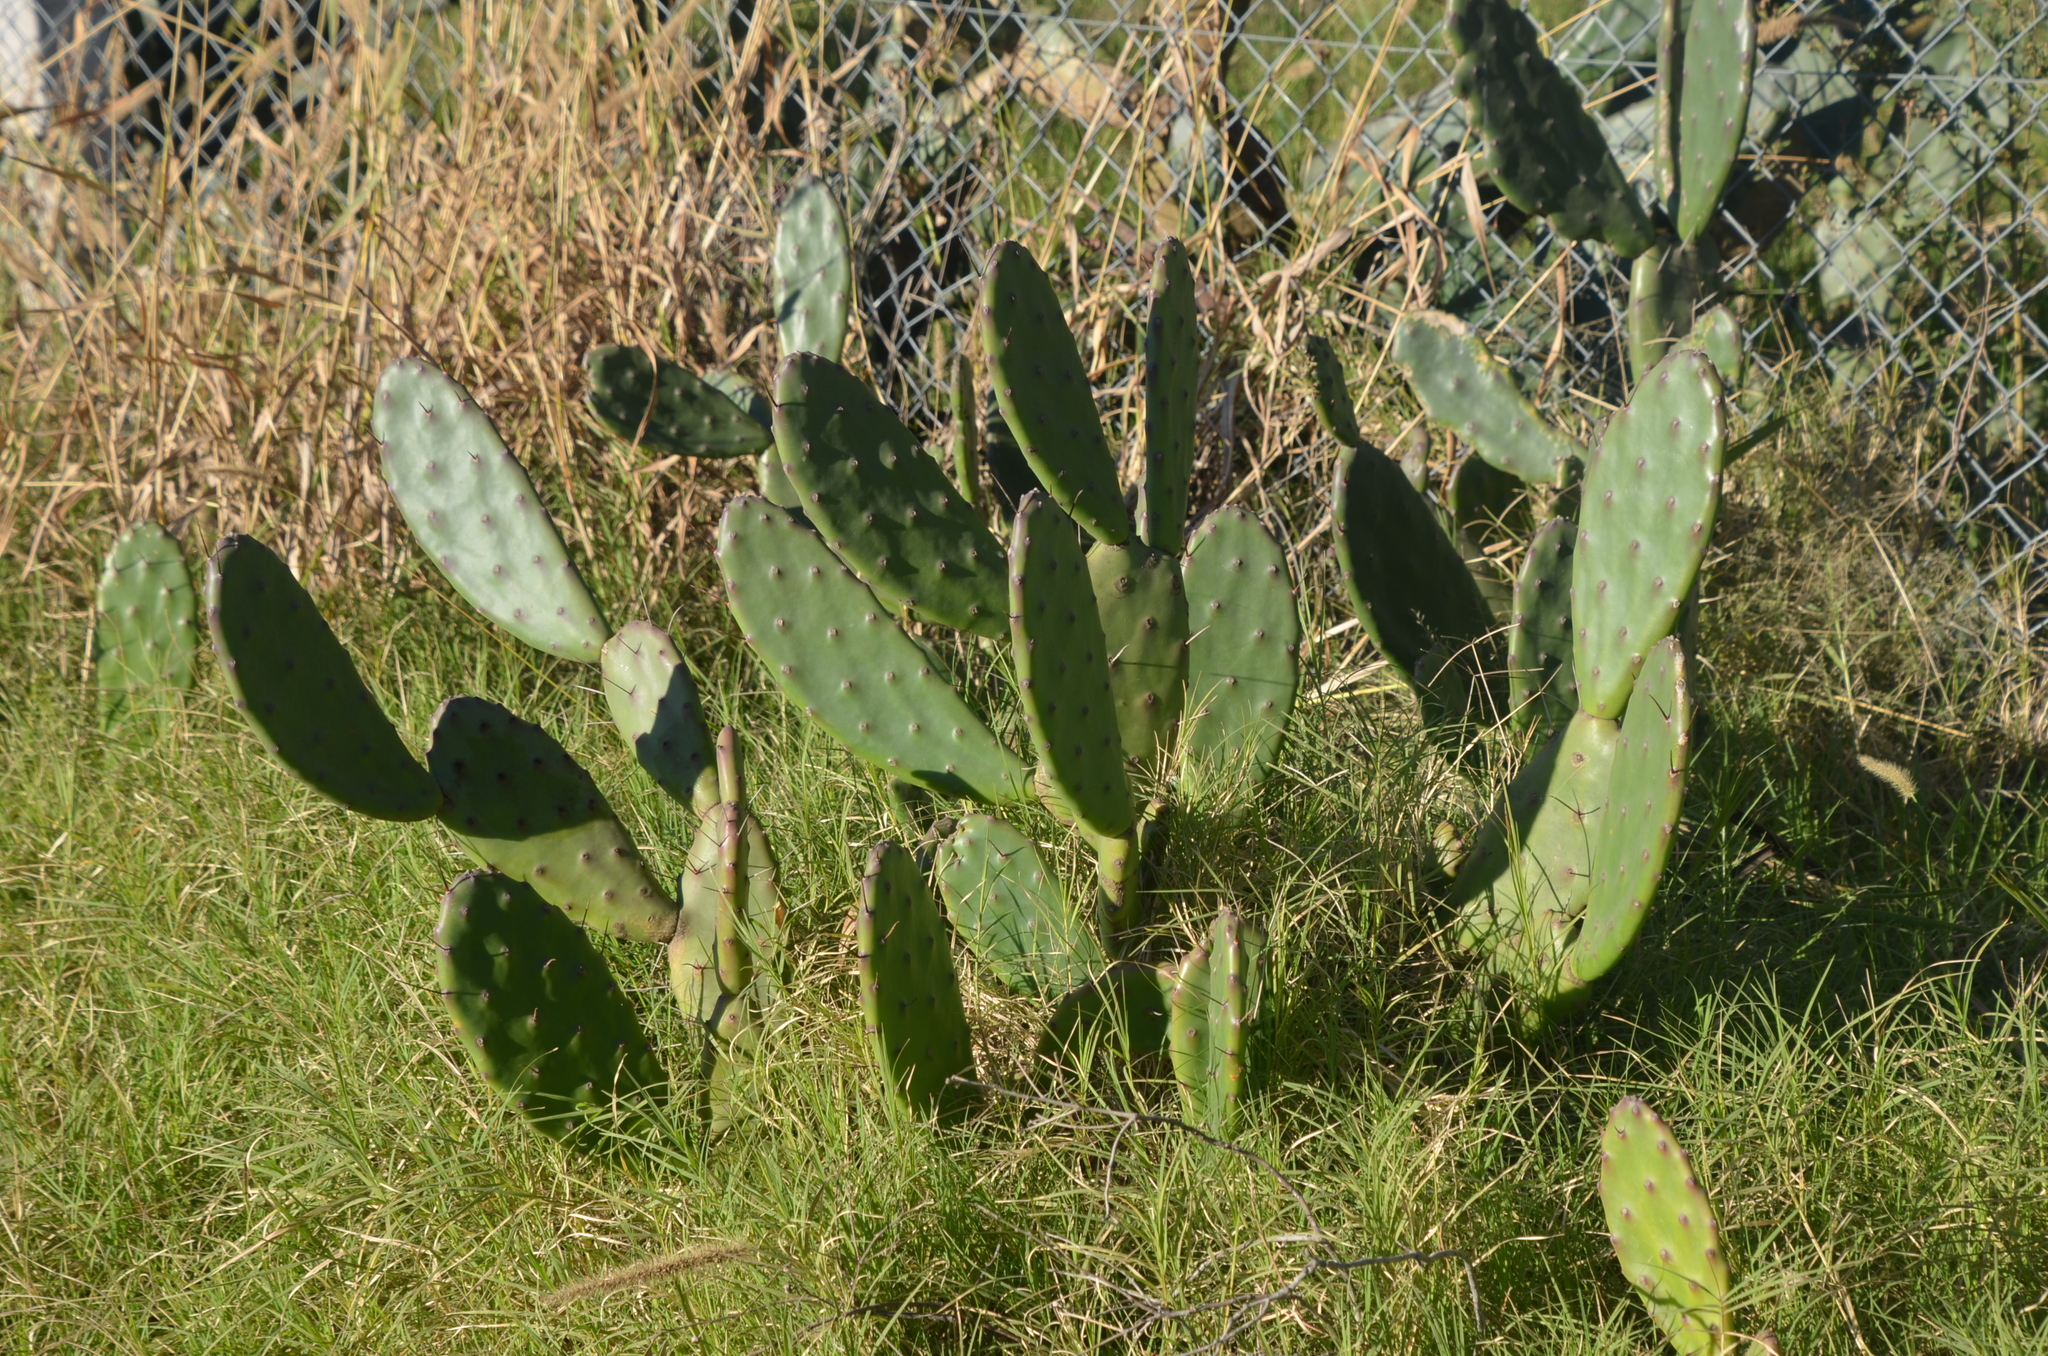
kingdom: Plantae
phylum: Tracheophyta
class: Magnoliopsida
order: Caryophyllales
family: Cactaceae
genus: Opuntia
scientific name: Opuntia elata
